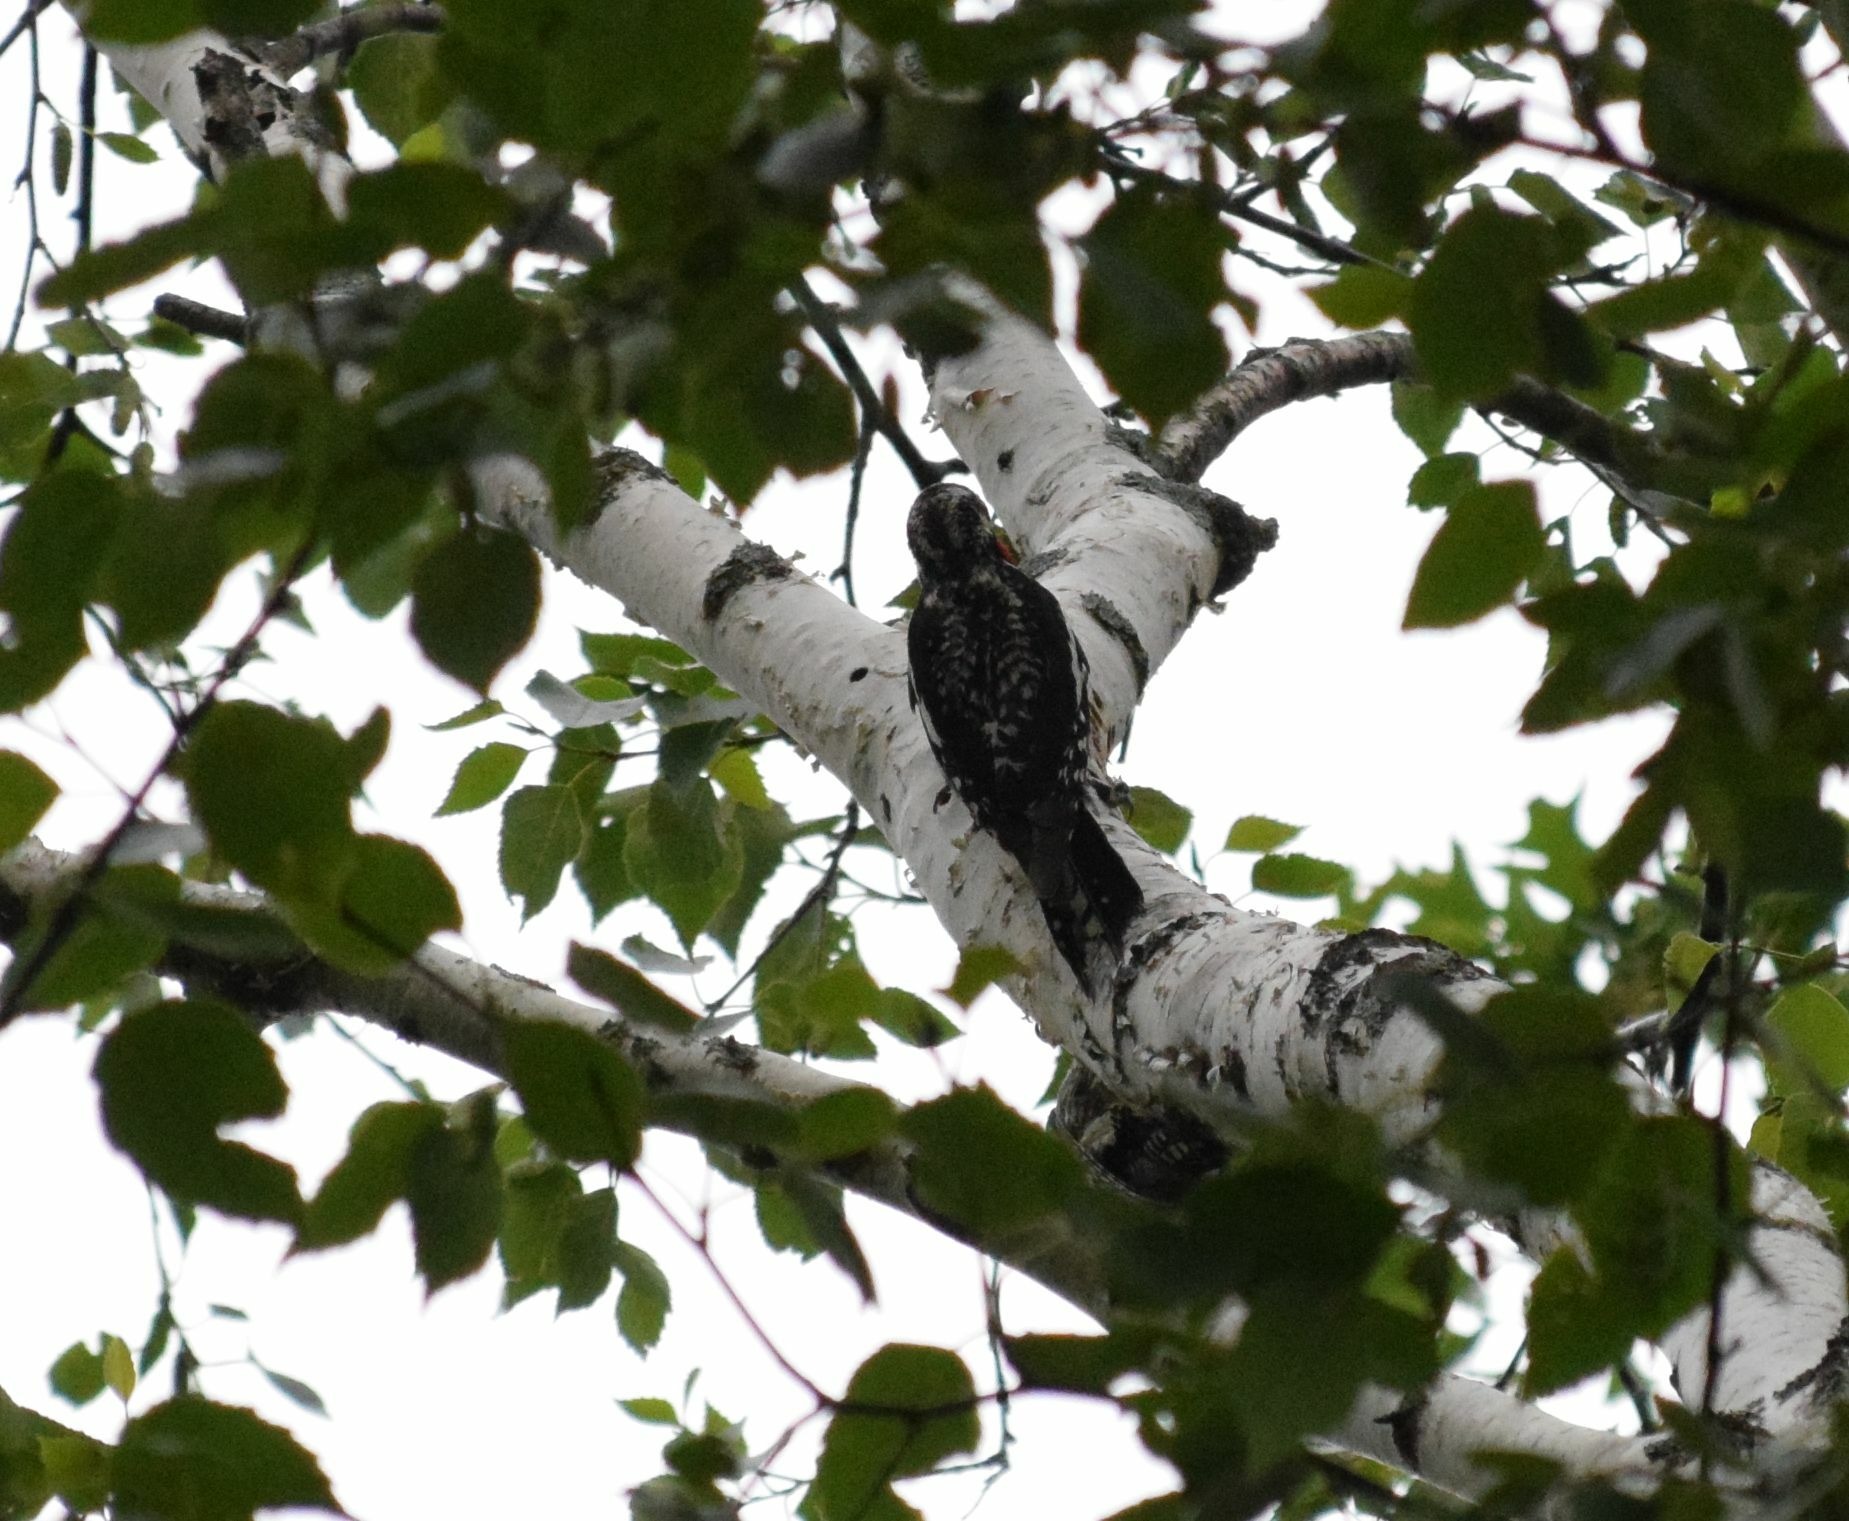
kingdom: Animalia
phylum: Chordata
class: Aves
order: Piciformes
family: Picidae
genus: Sphyrapicus
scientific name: Sphyrapicus varius
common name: Yellow-bellied sapsucker
